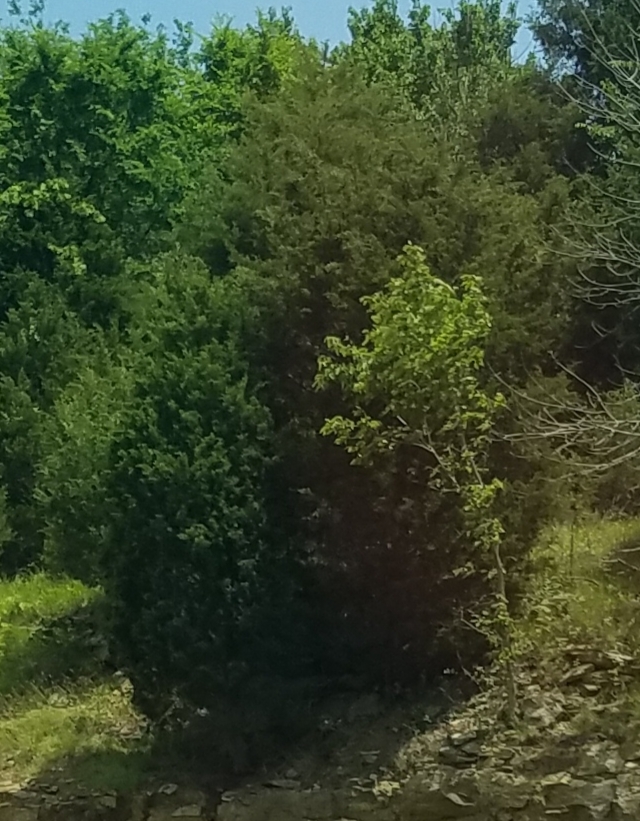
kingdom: Plantae
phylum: Tracheophyta
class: Pinopsida
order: Pinales
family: Cupressaceae
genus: Juniperus
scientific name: Juniperus virginiana
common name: Red juniper
